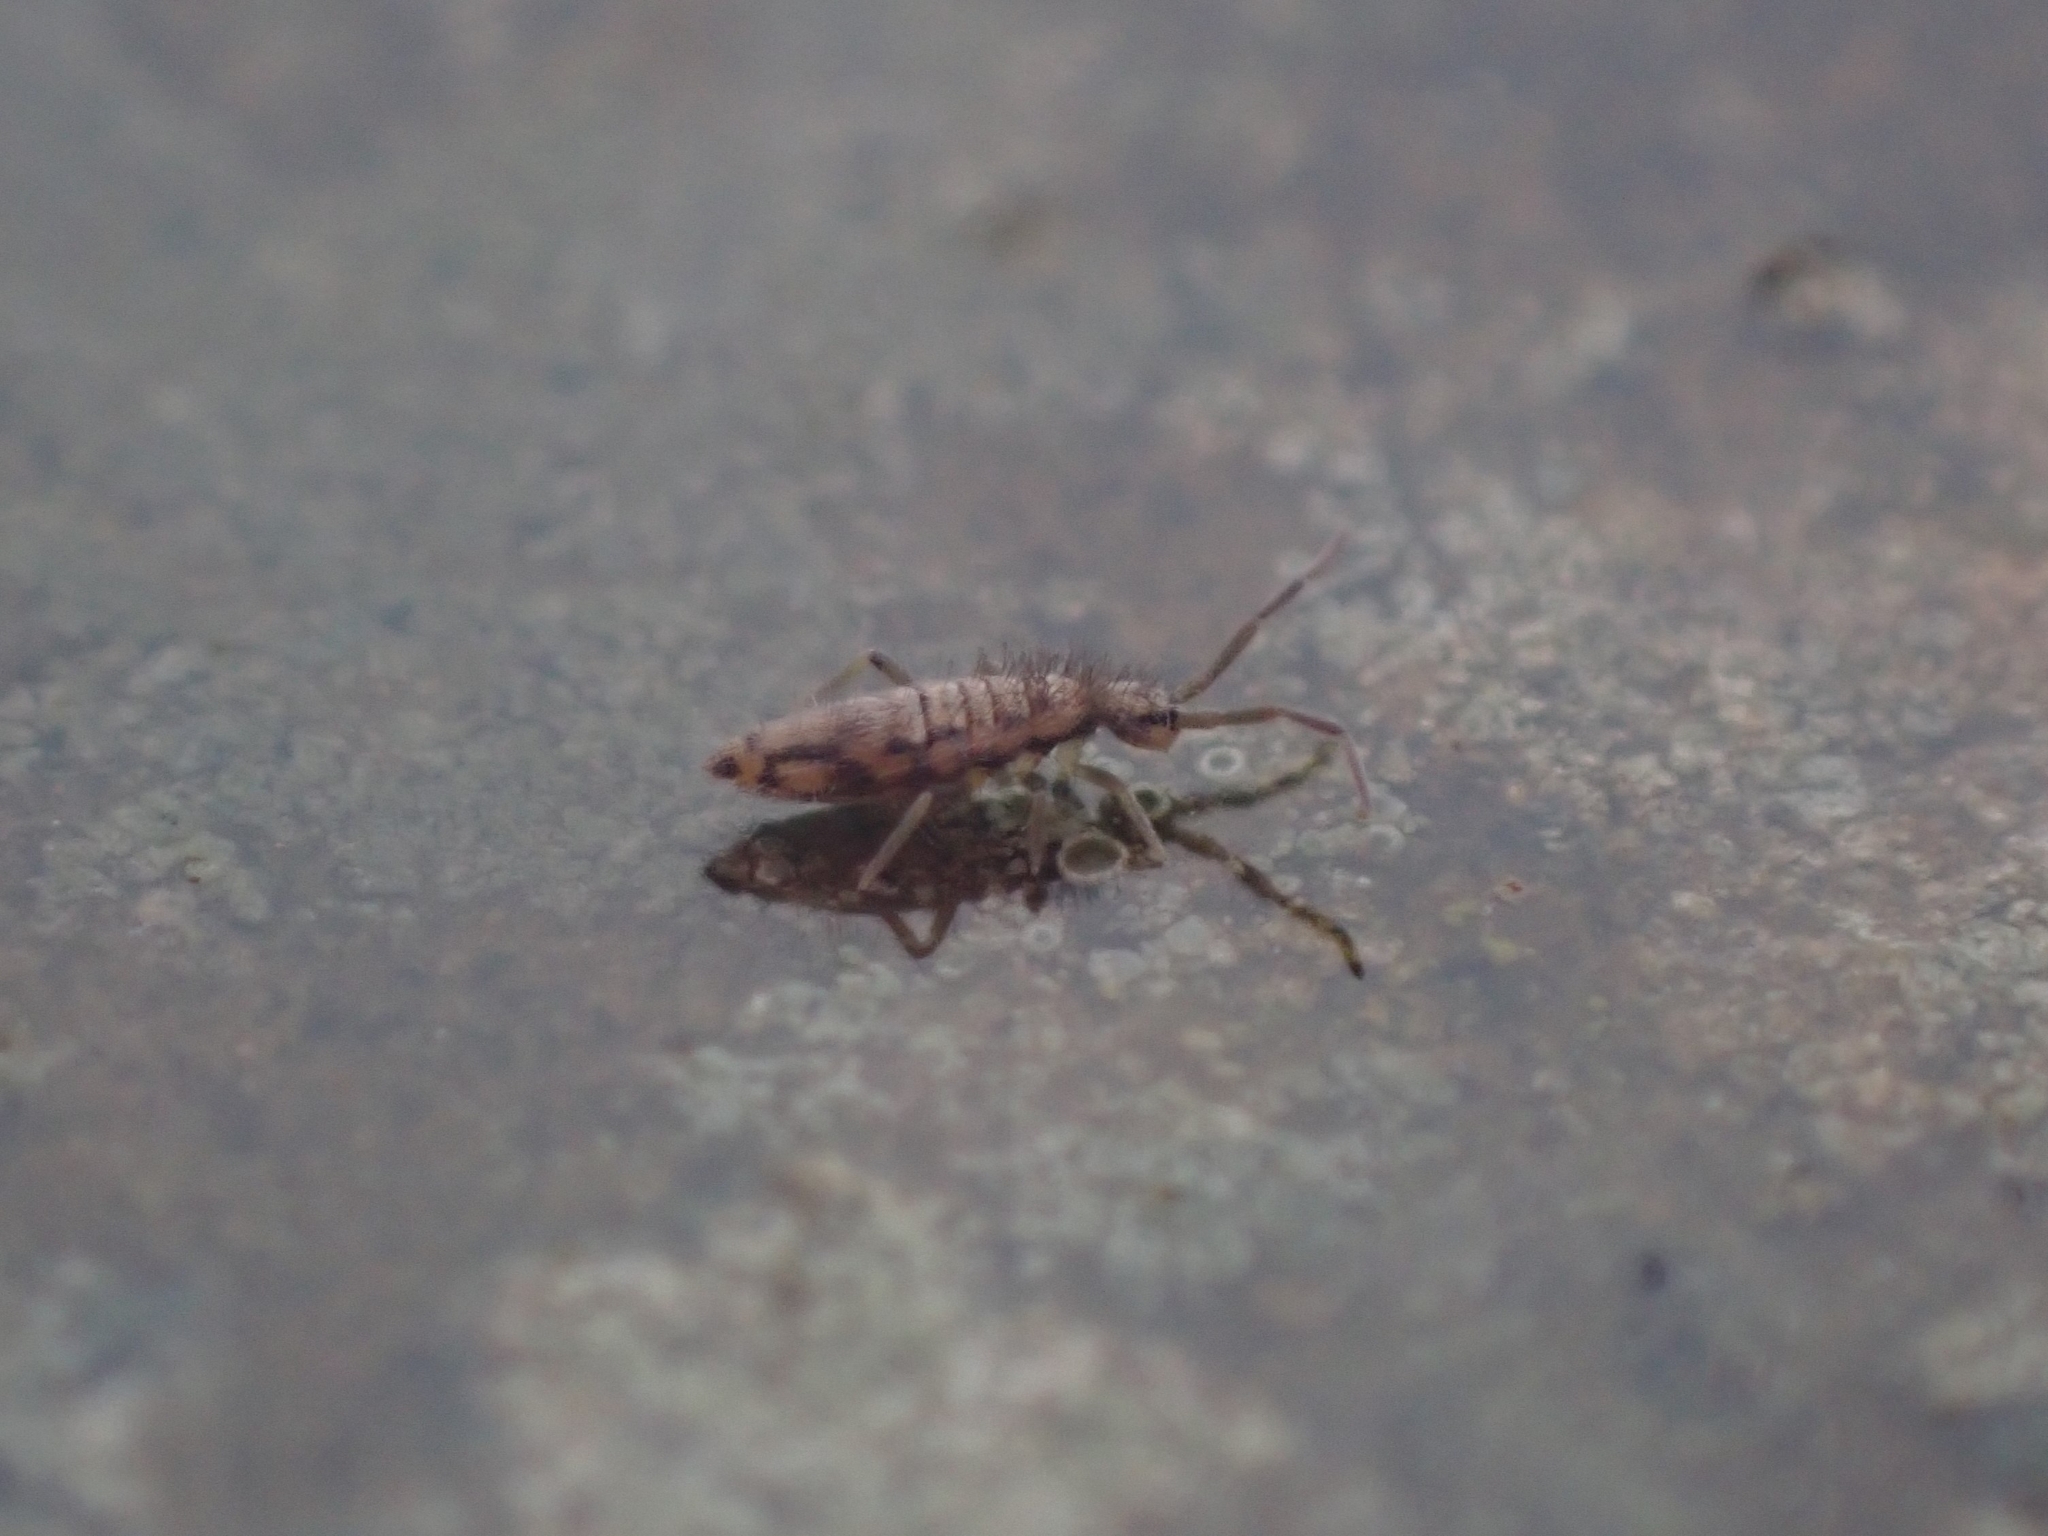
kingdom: Animalia
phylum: Arthropoda
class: Collembola
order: Entomobryomorpha
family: Entomobryidae
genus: Entomobrya
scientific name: Entomobrya intermedia
